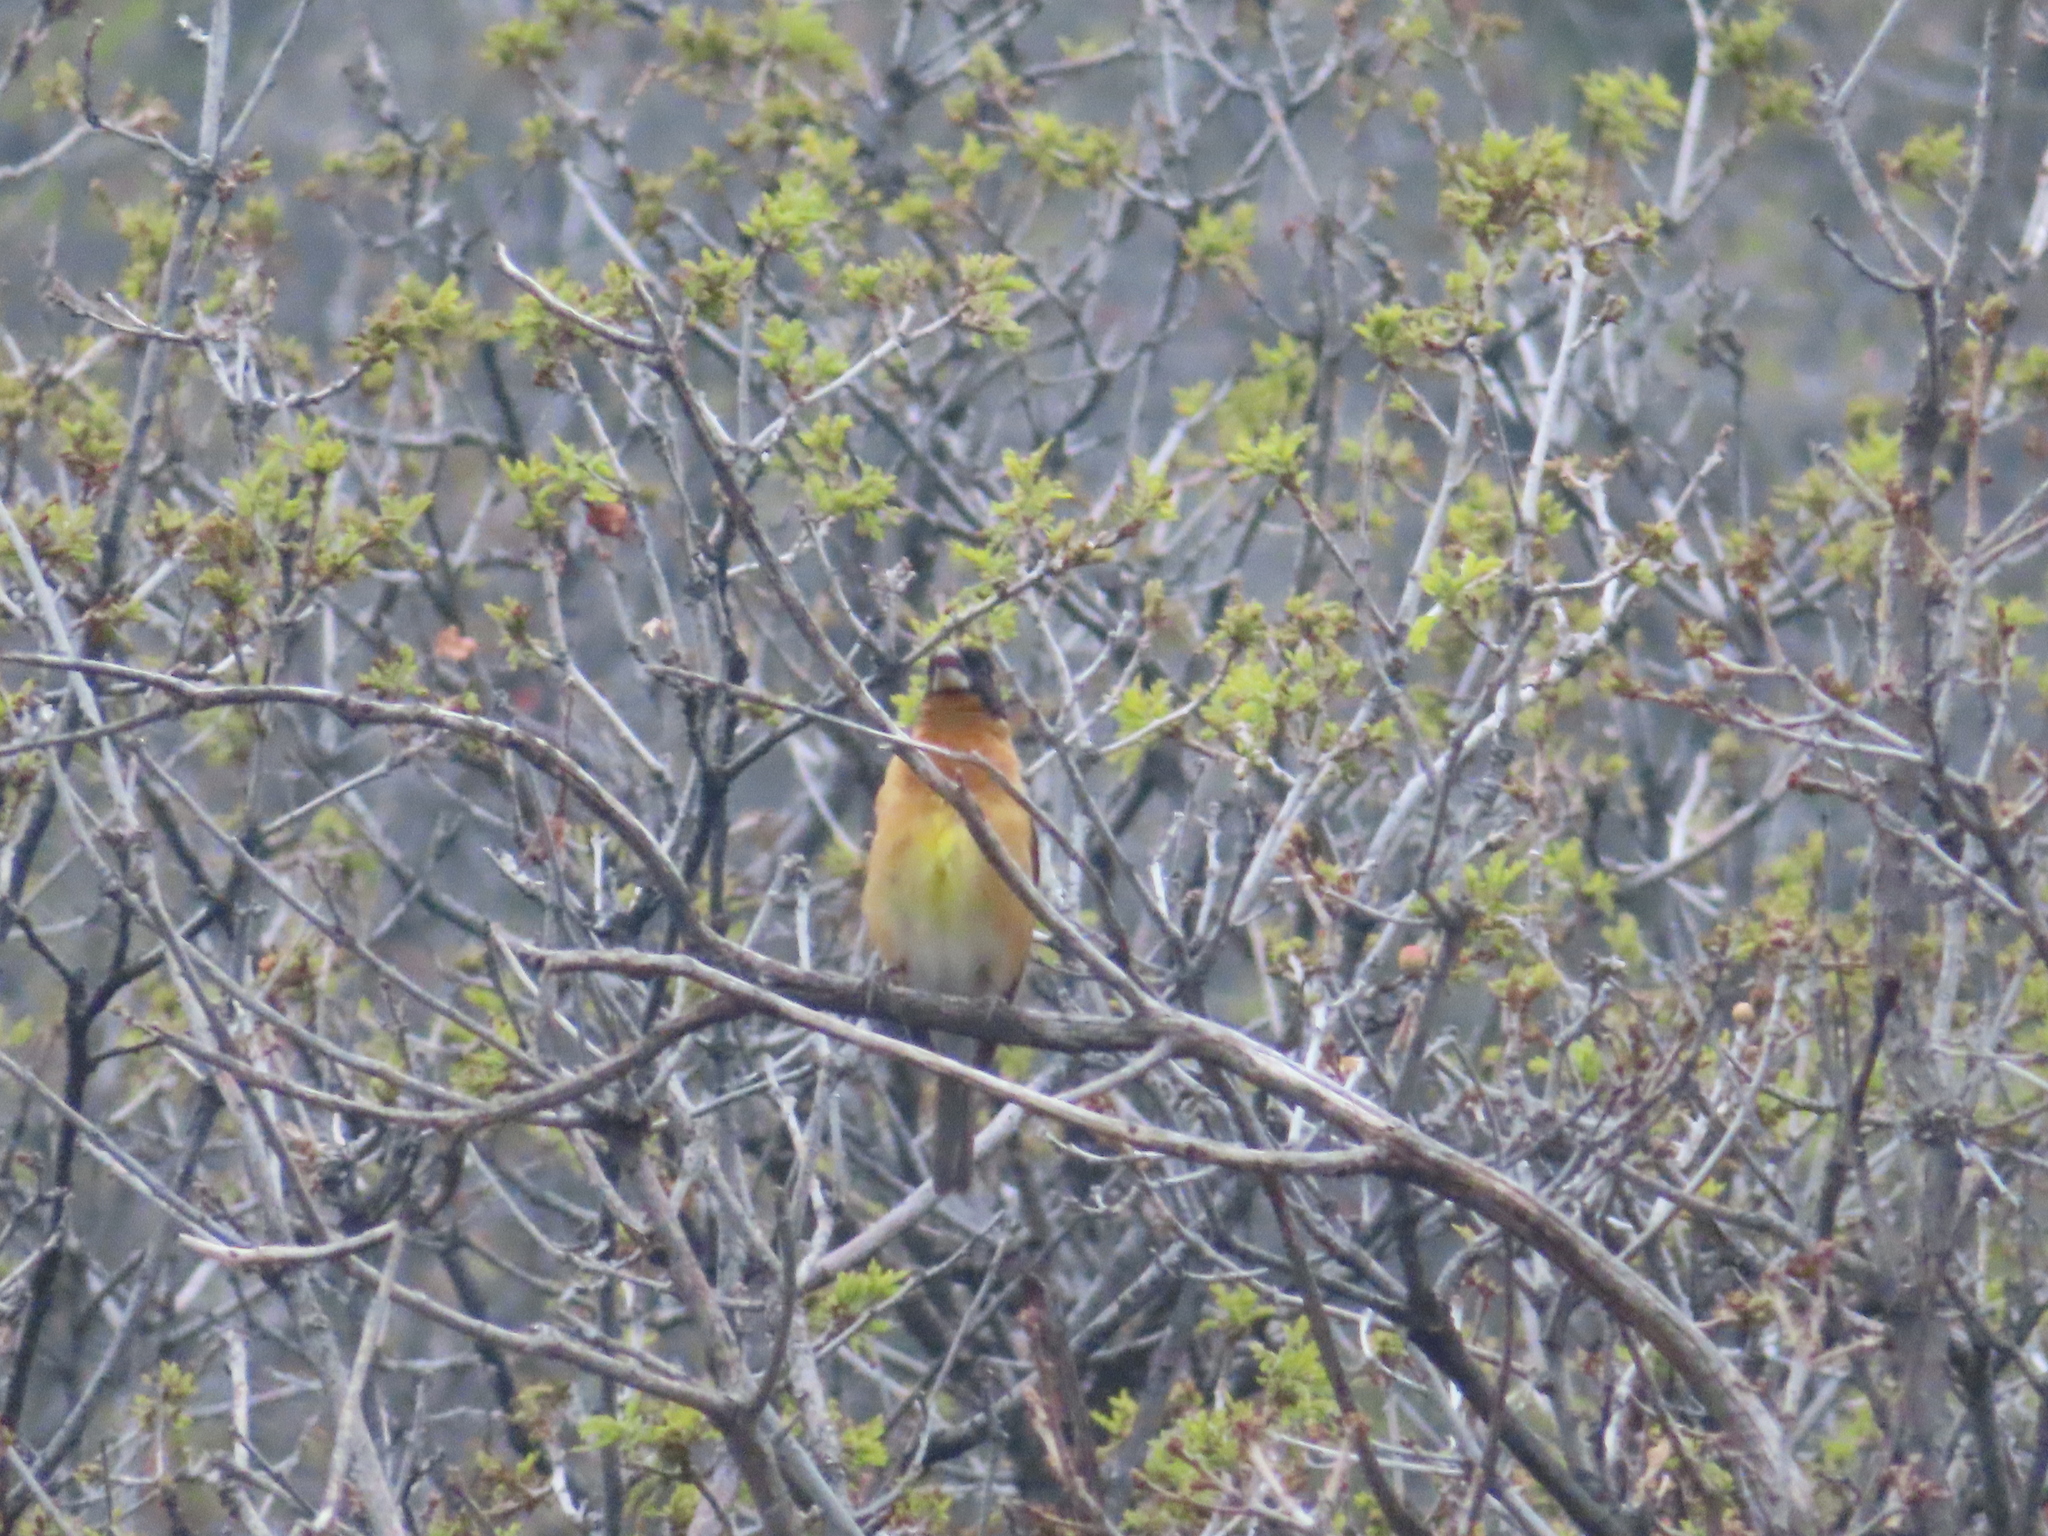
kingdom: Animalia
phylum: Chordata
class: Aves
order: Passeriformes
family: Cardinalidae
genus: Pheucticus
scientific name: Pheucticus melanocephalus
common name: Black-headed grosbeak
